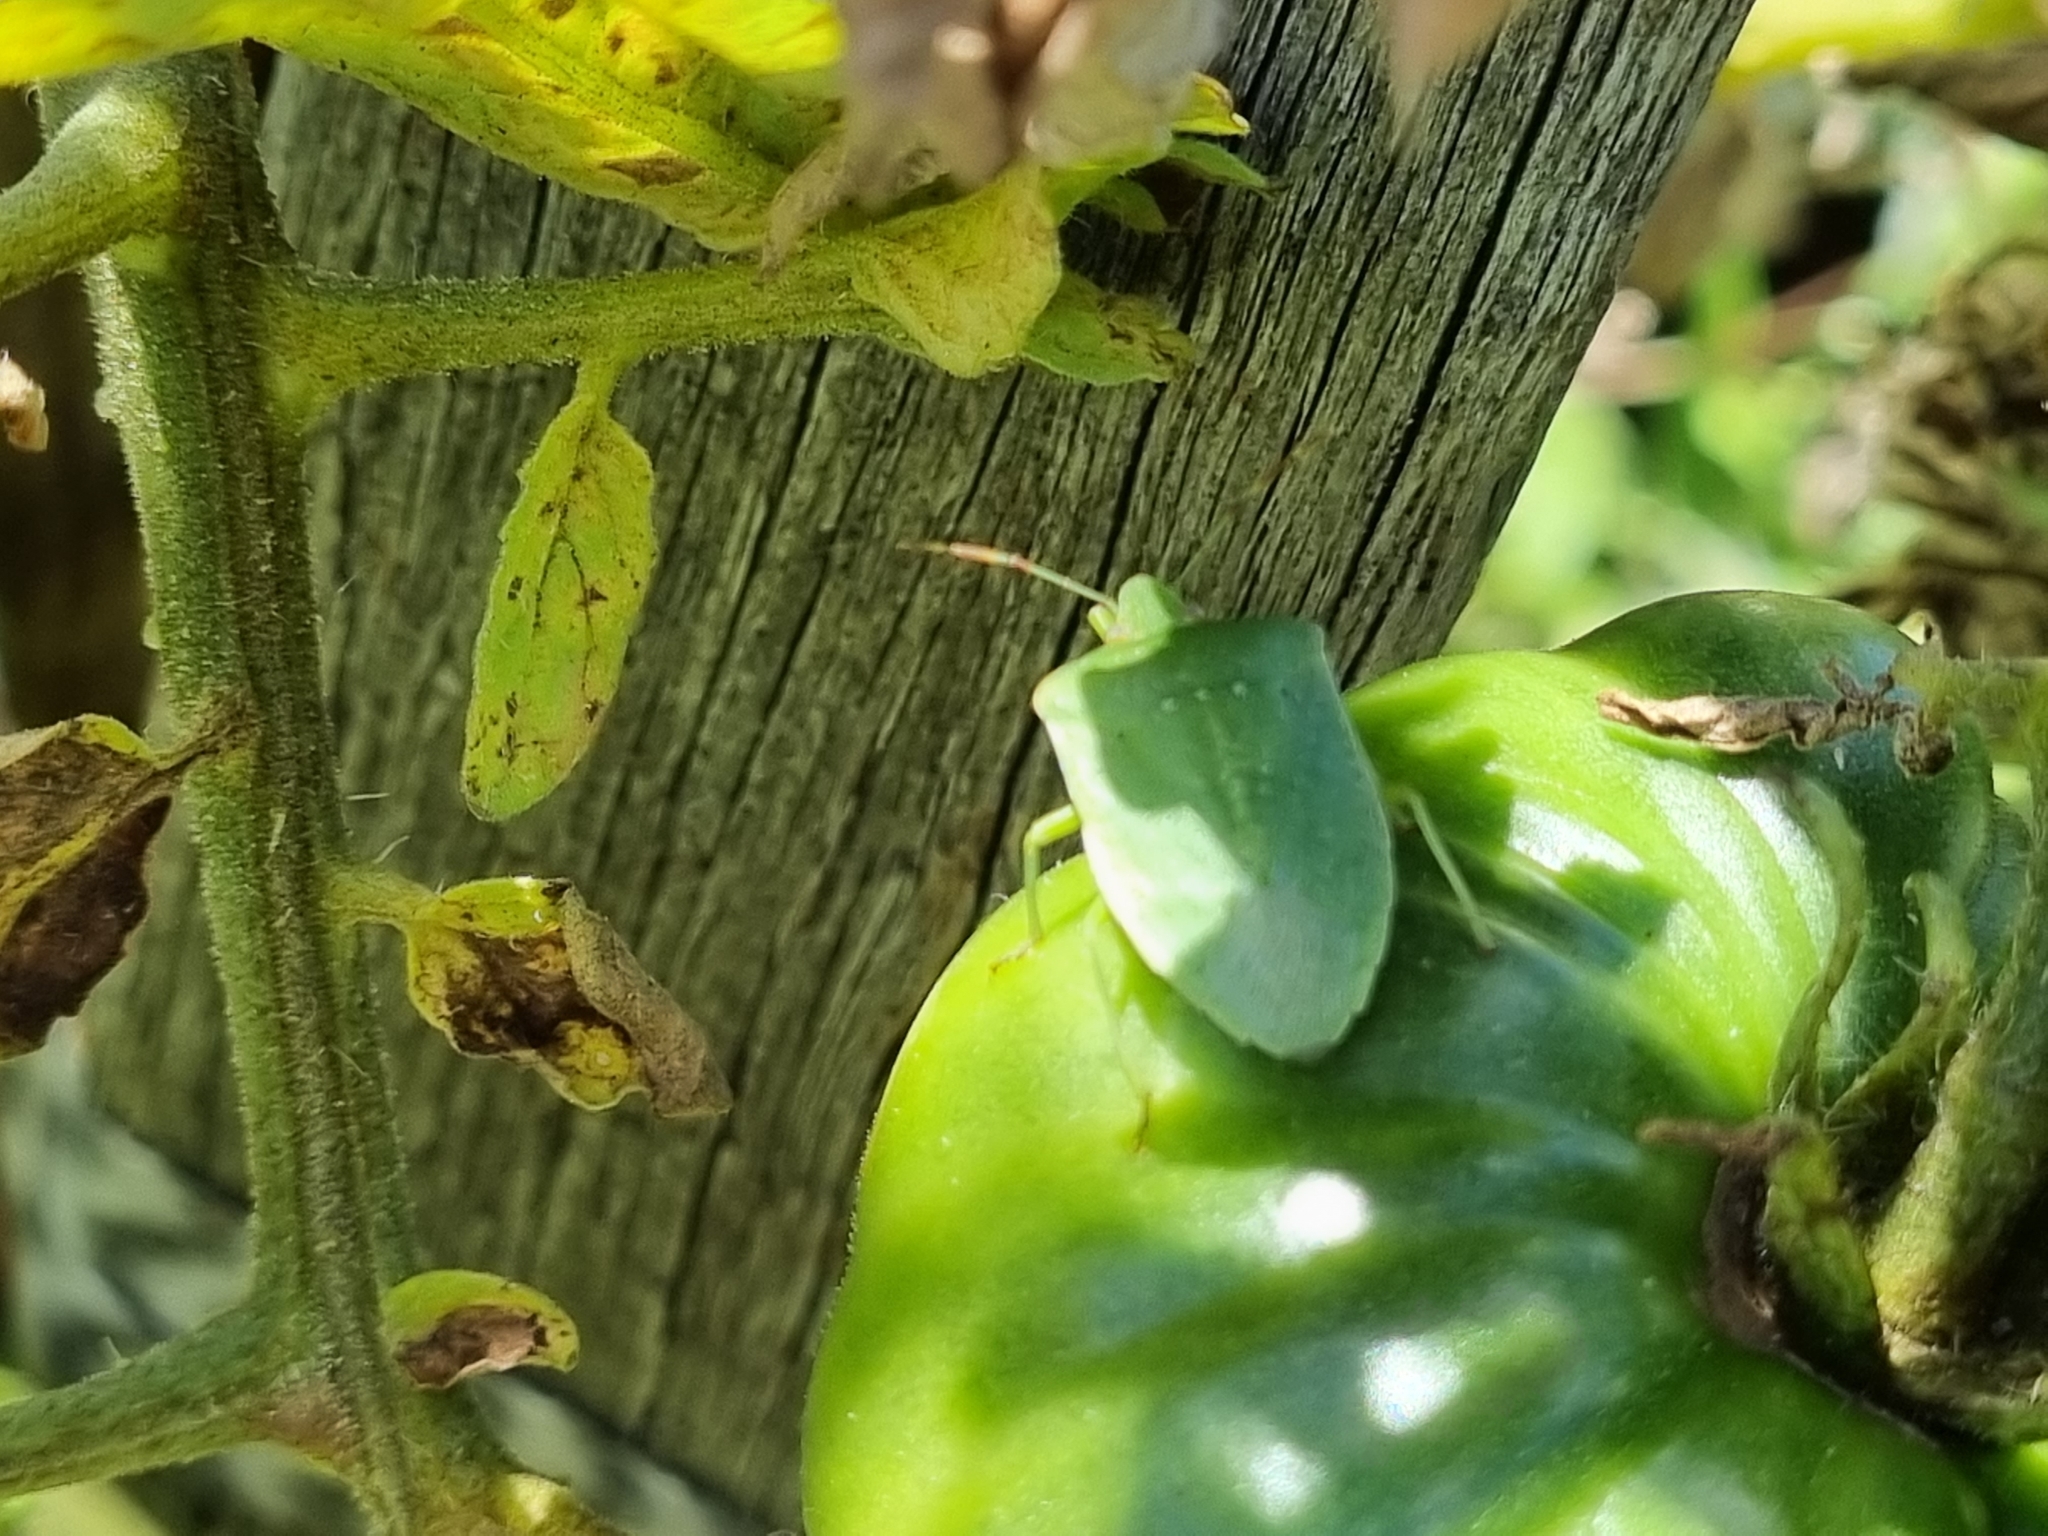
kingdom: Animalia
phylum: Arthropoda
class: Insecta
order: Hemiptera
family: Pentatomidae
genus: Nezara
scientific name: Nezara viridula
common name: Southern green stink bug
